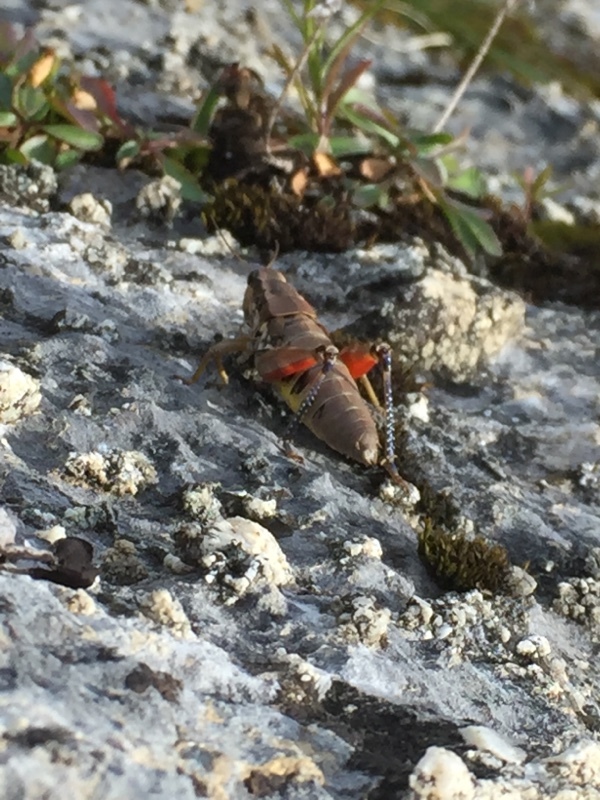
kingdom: Animalia
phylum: Arthropoda
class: Insecta
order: Orthoptera
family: Acrididae
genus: Podisma
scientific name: Podisma pedestris
